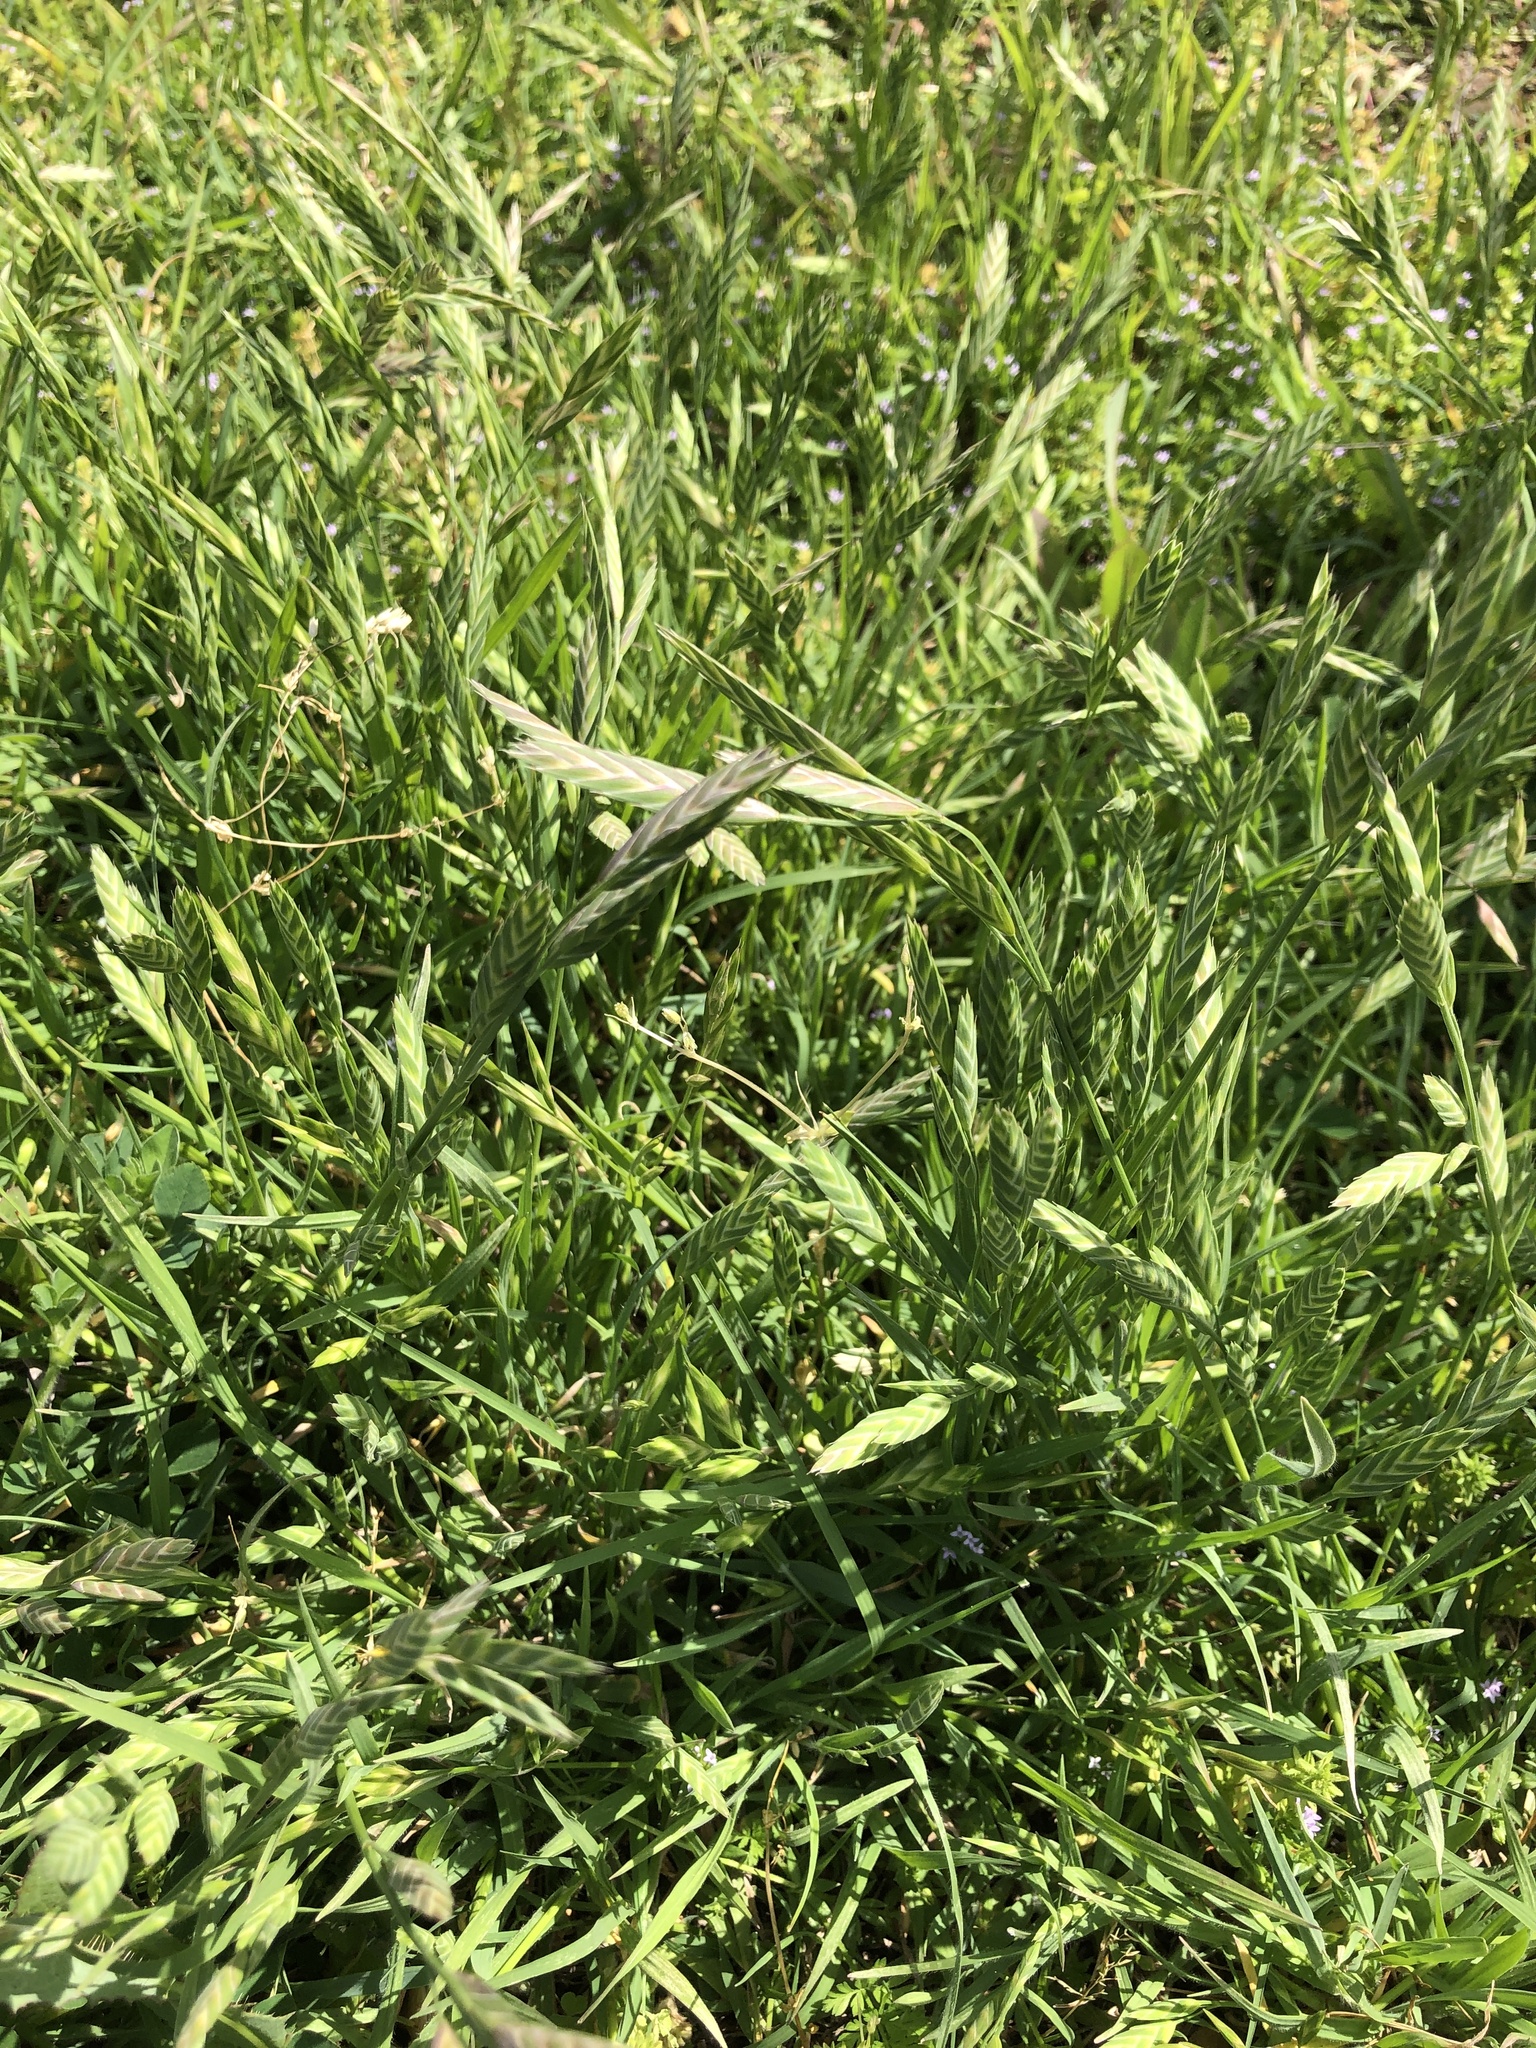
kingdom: Plantae
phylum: Tracheophyta
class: Liliopsida
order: Poales
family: Poaceae
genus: Bromus
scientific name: Bromus catharticus
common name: Rescuegrass
